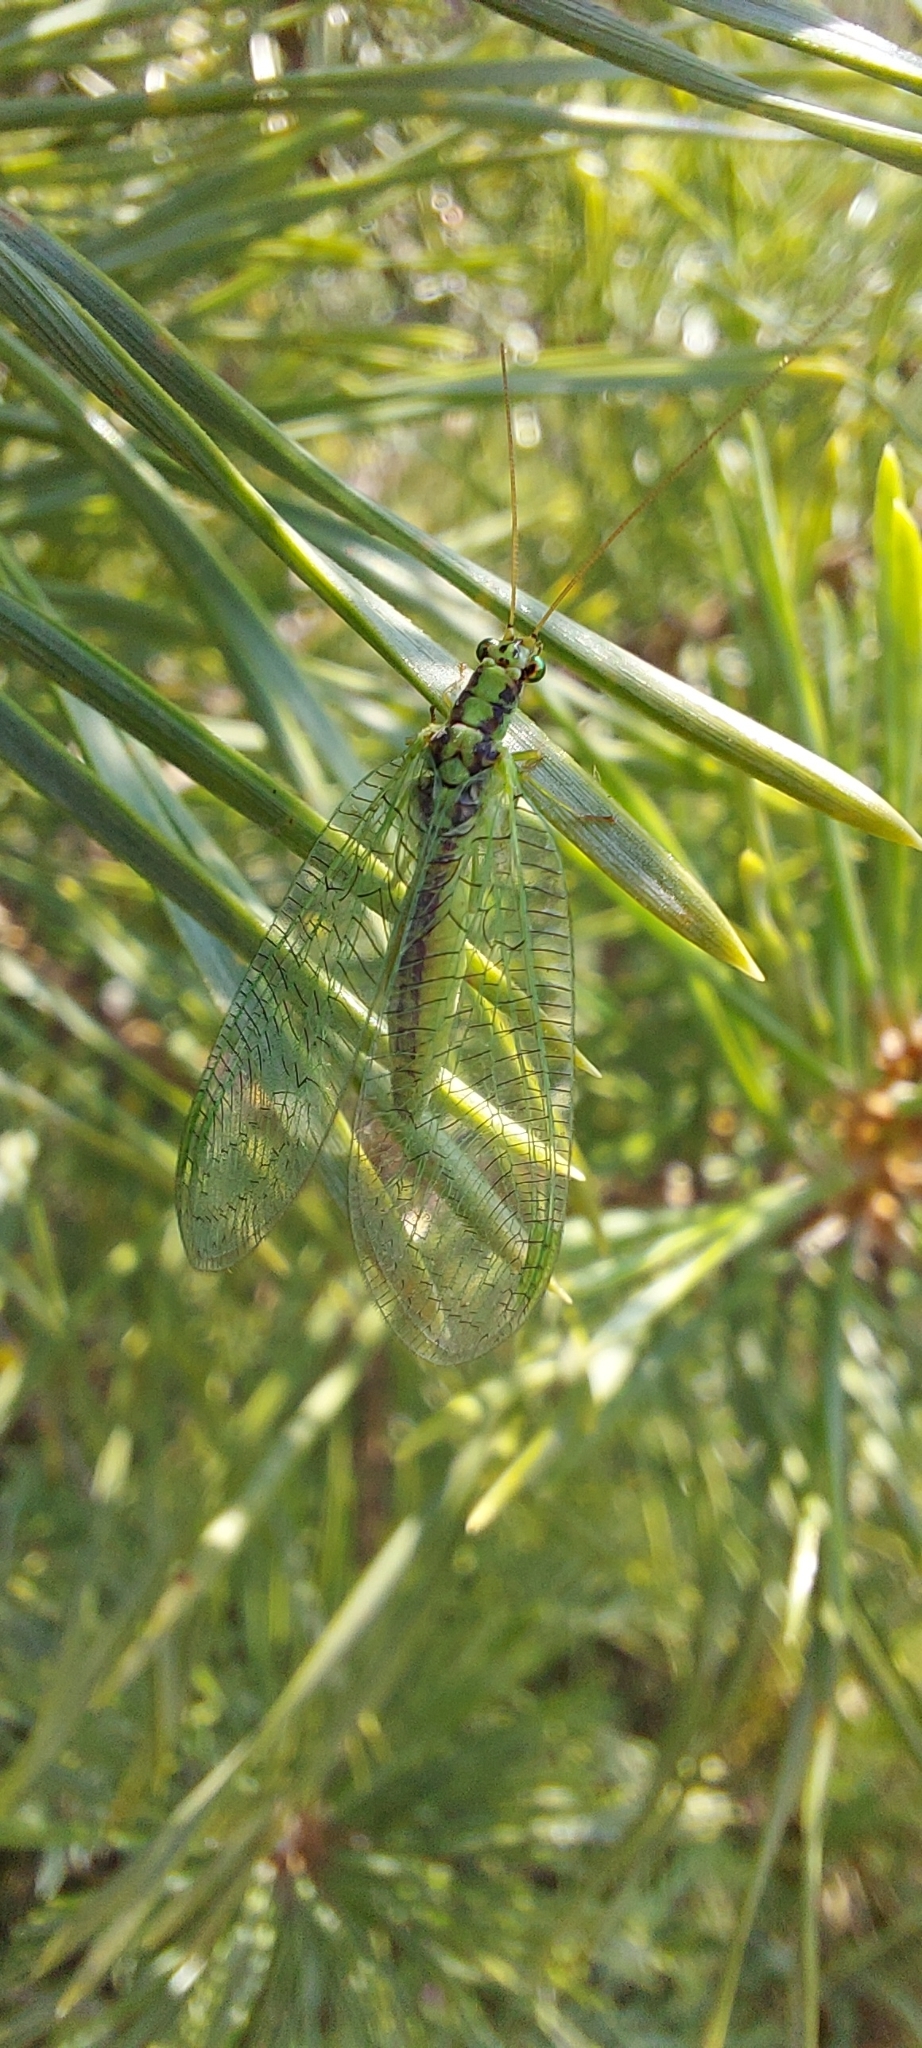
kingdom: Animalia
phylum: Arthropoda
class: Insecta
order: Neuroptera
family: Chrysopidae
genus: Chrysopa
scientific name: Chrysopa walkeri
